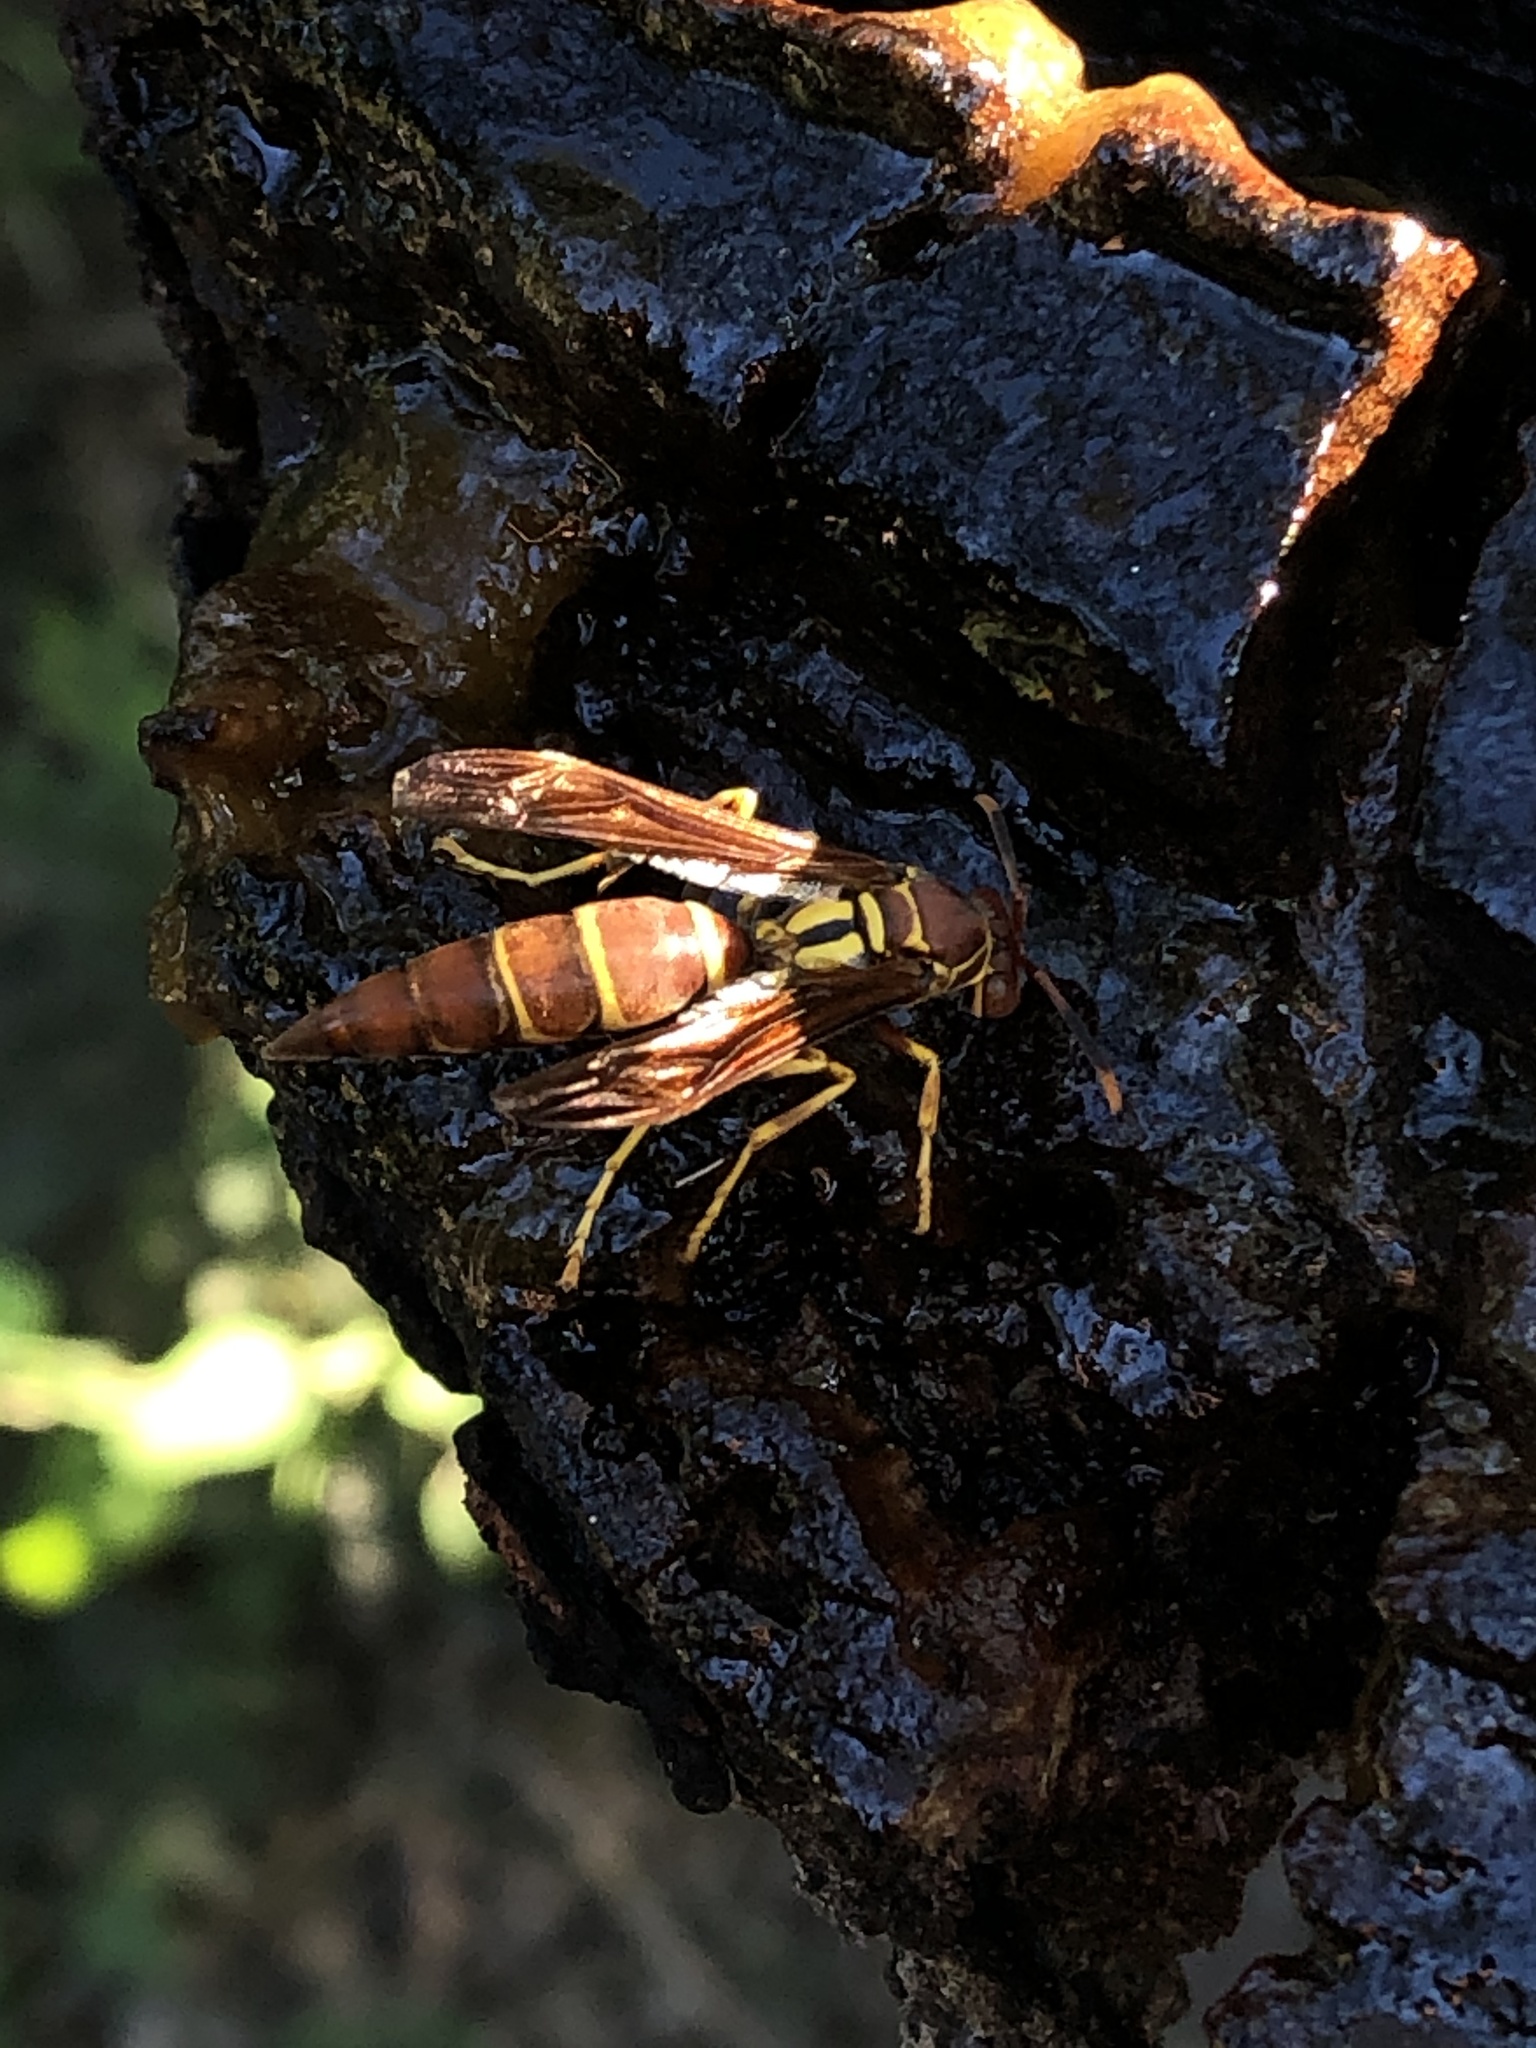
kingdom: Animalia
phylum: Arthropoda
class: Insecta
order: Hymenoptera
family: Eumenidae
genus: Polistes
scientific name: Polistes instabilis
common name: Unstable paper wasp
